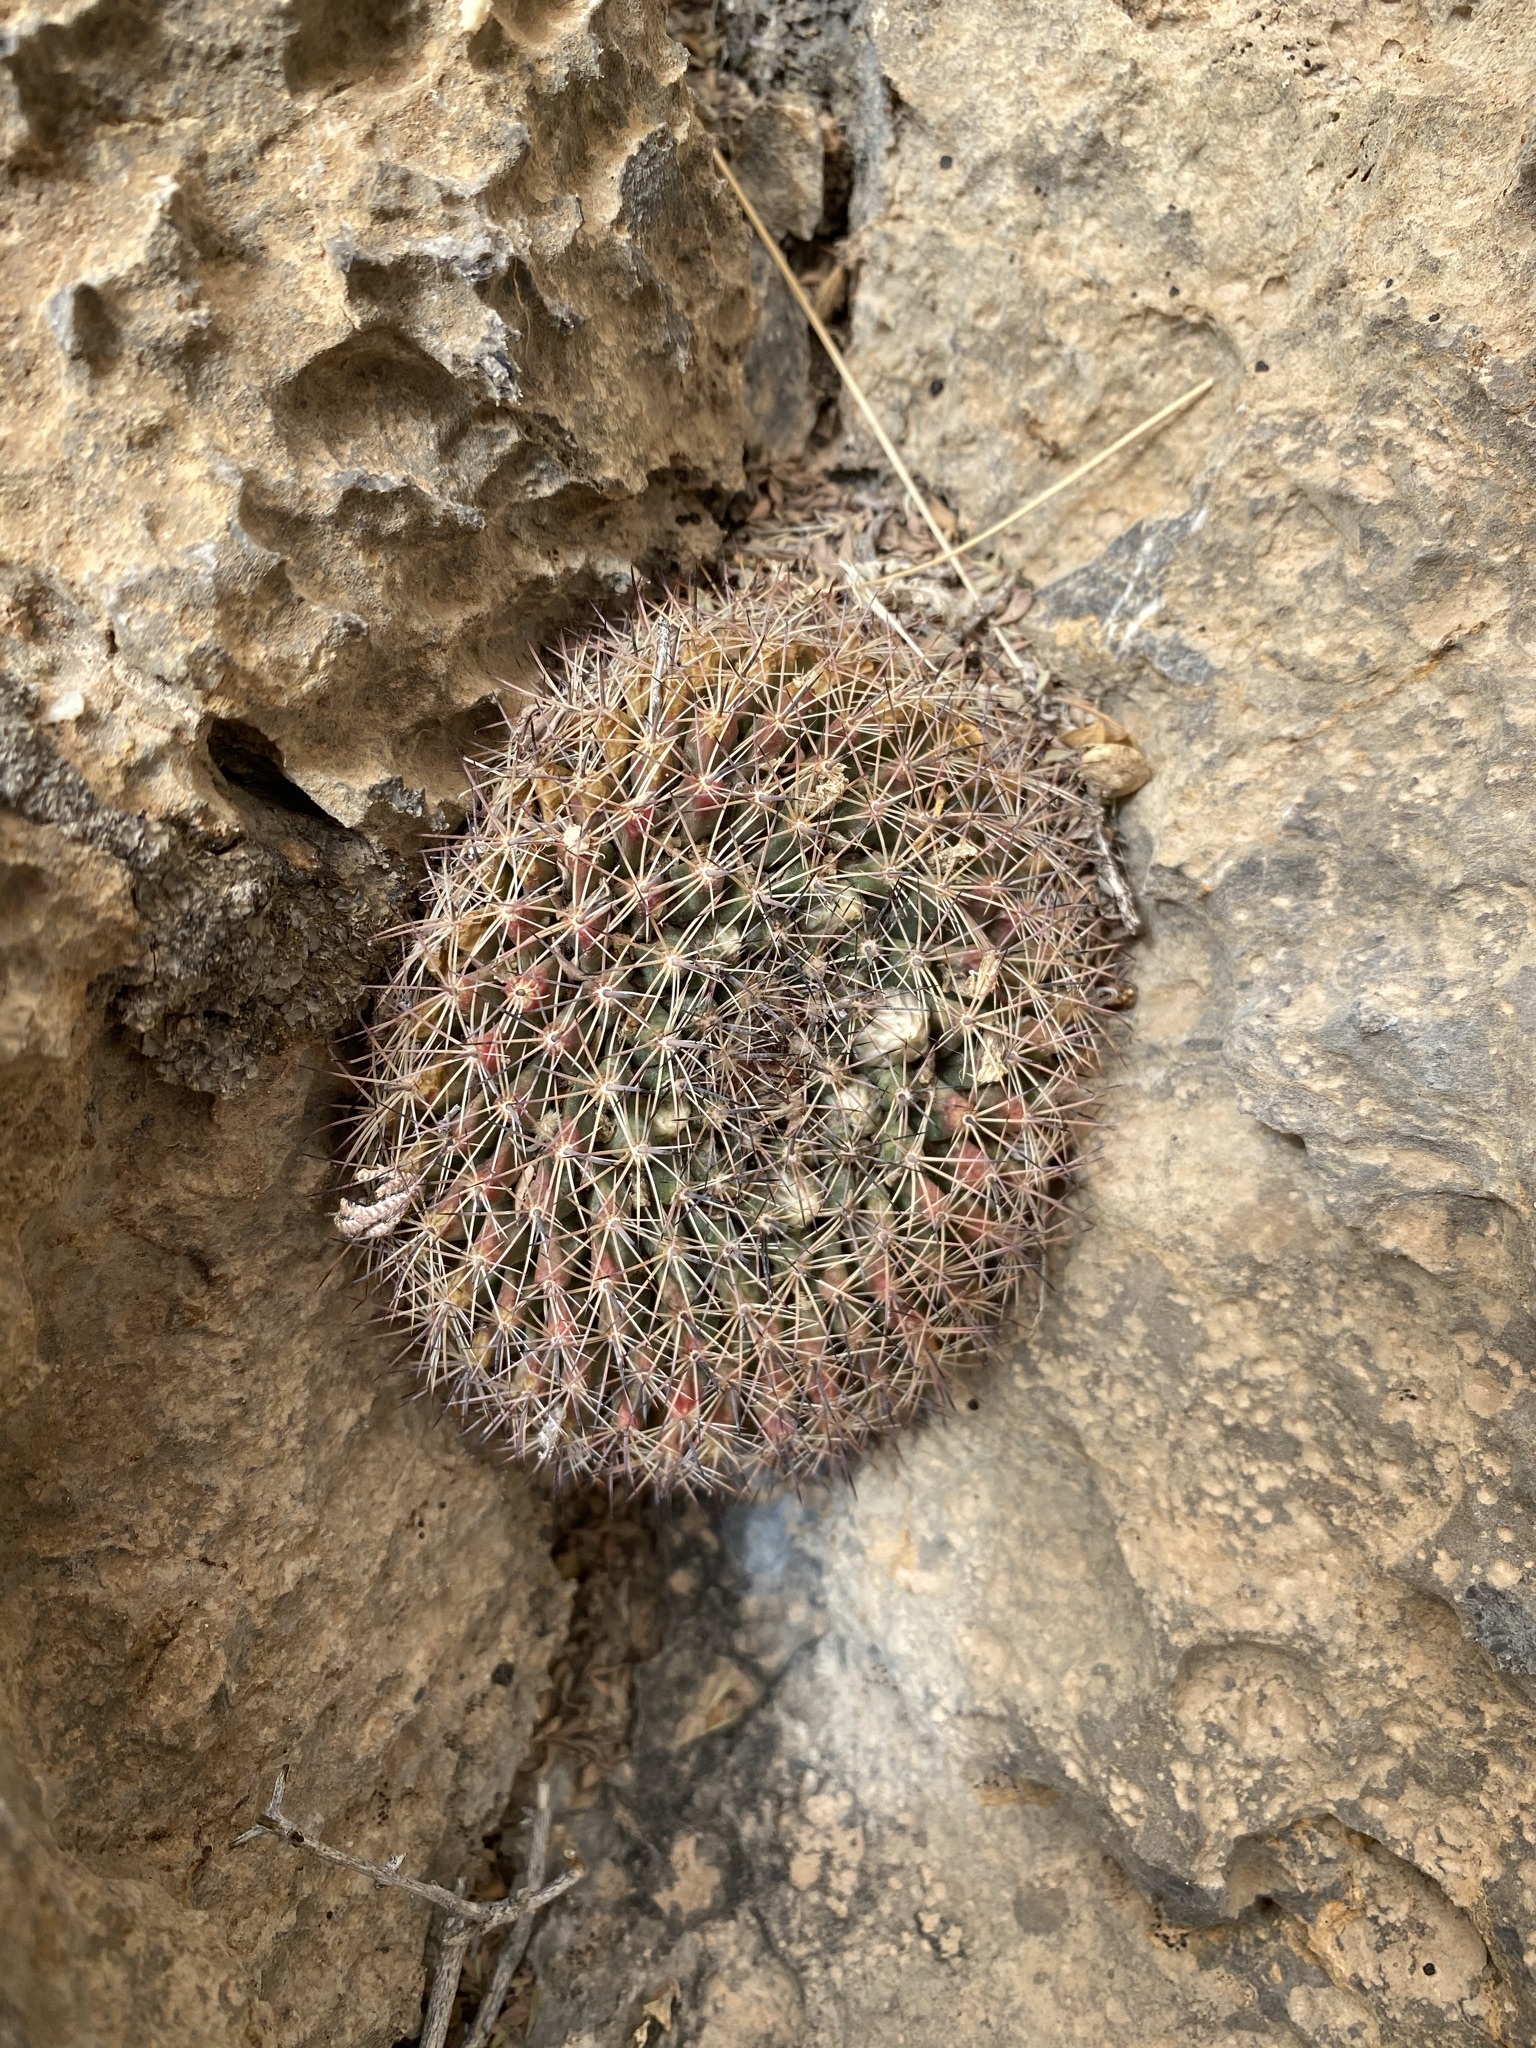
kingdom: Plantae
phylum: Tracheophyta
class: Magnoliopsida
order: Caryophyllales
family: Cactaceae
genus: Mammillaria
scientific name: Mammillaria heyderi
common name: Little nipple cactus
